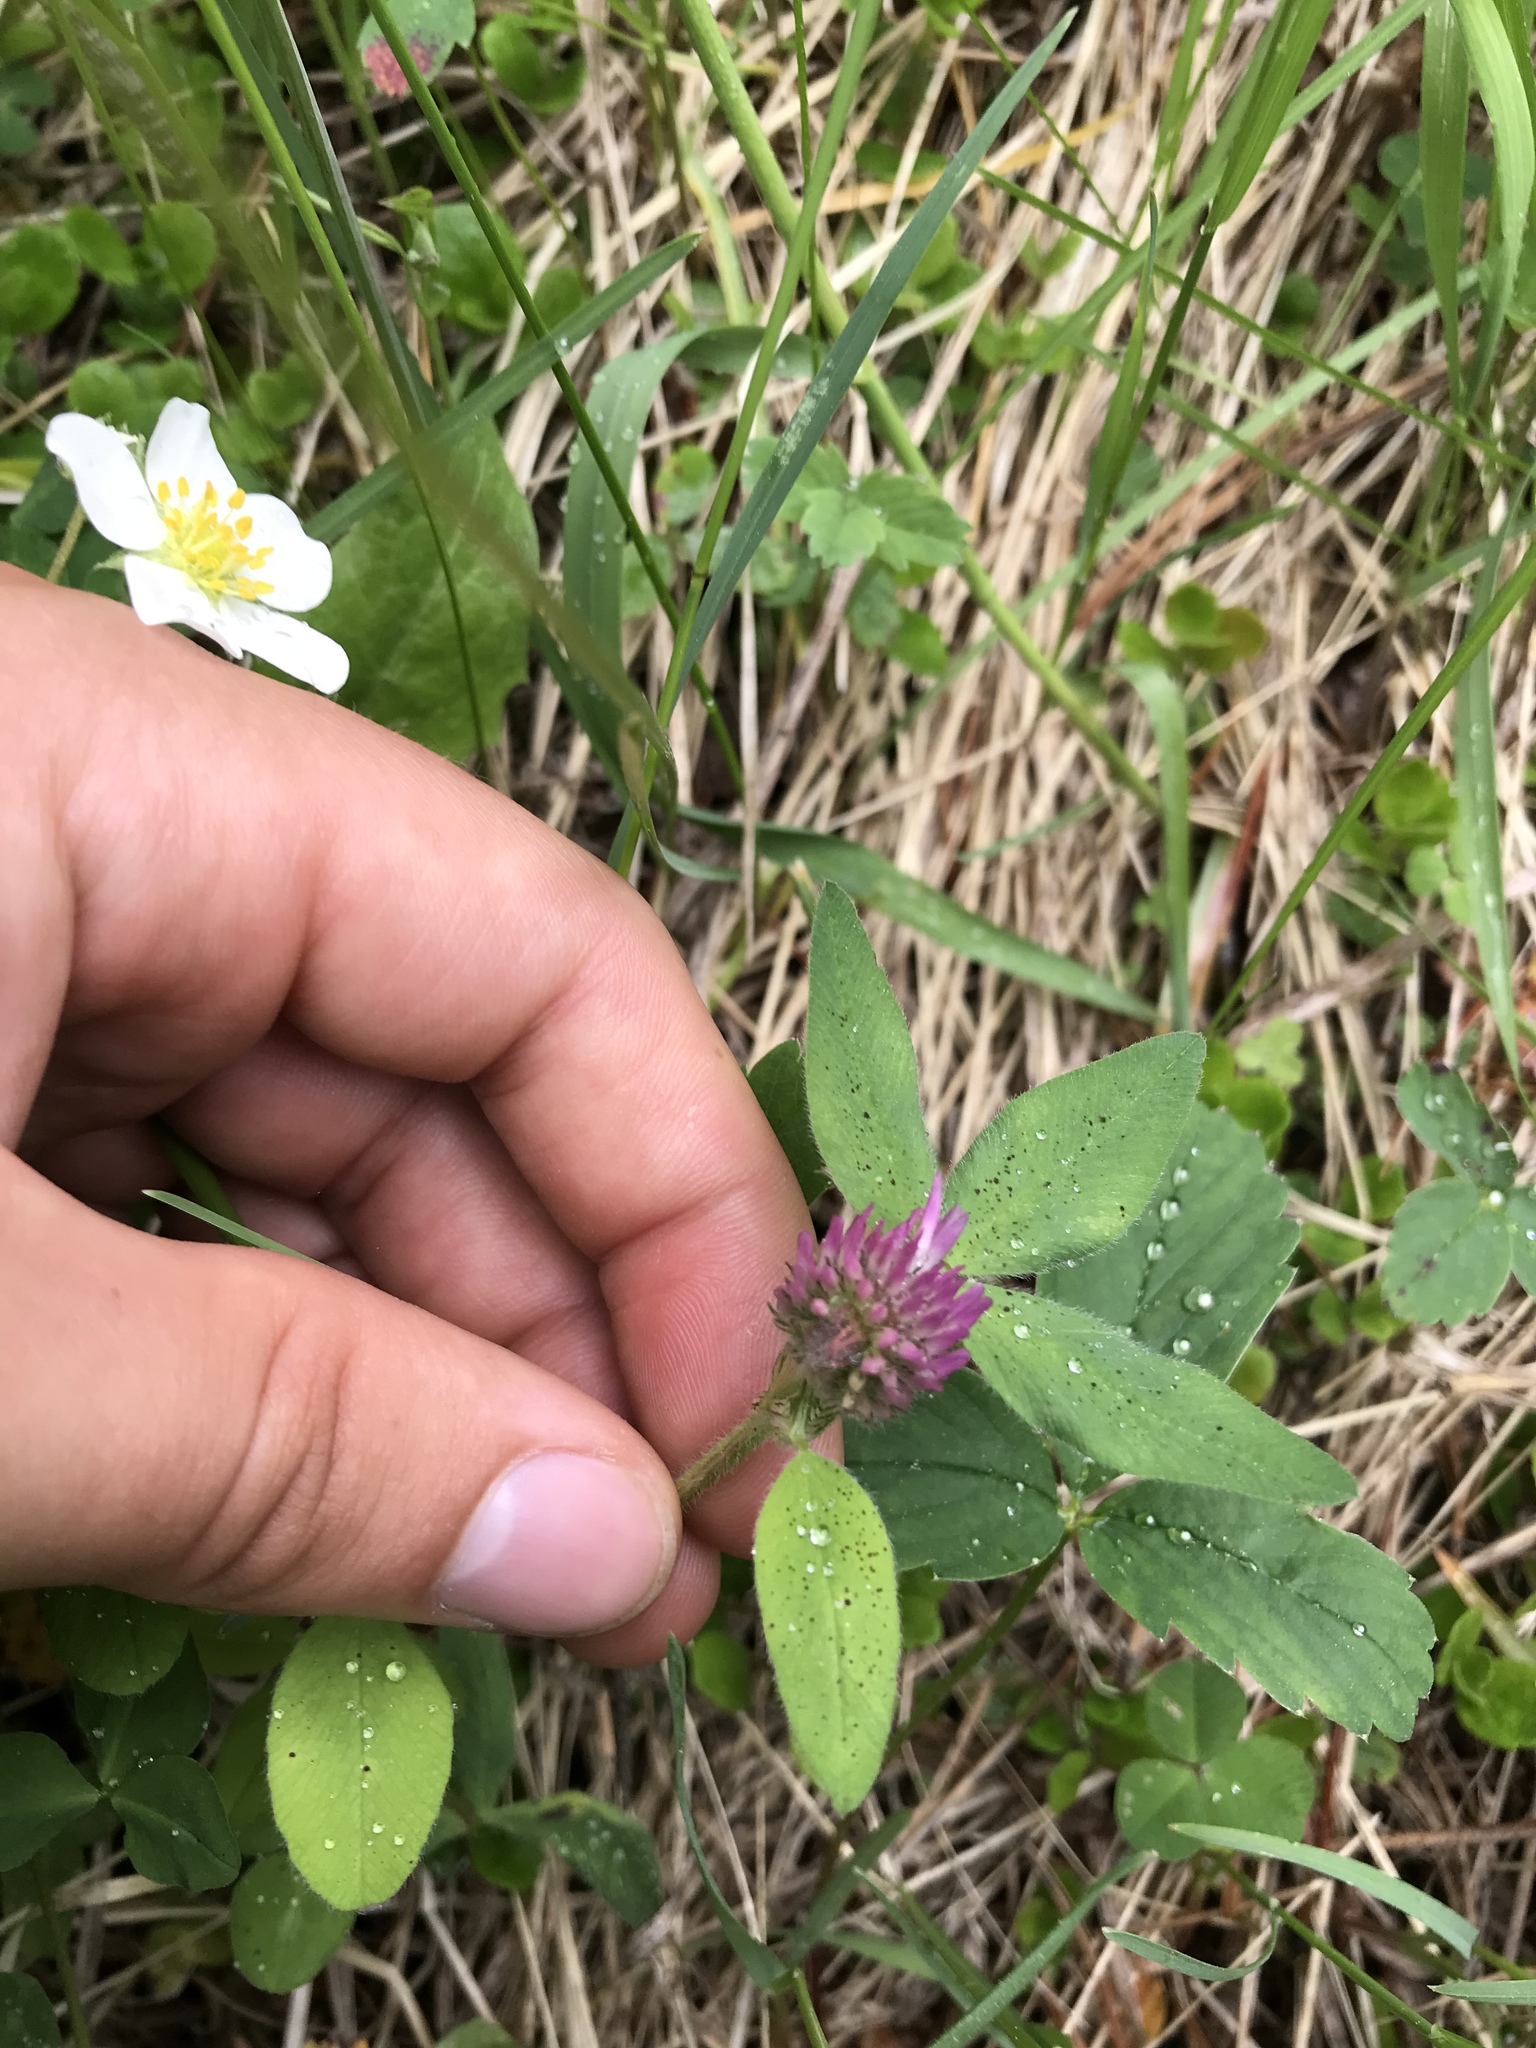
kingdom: Plantae
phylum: Tracheophyta
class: Magnoliopsida
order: Fabales
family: Fabaceae
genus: Trifolium
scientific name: Trifolium pratense
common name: Red clover
